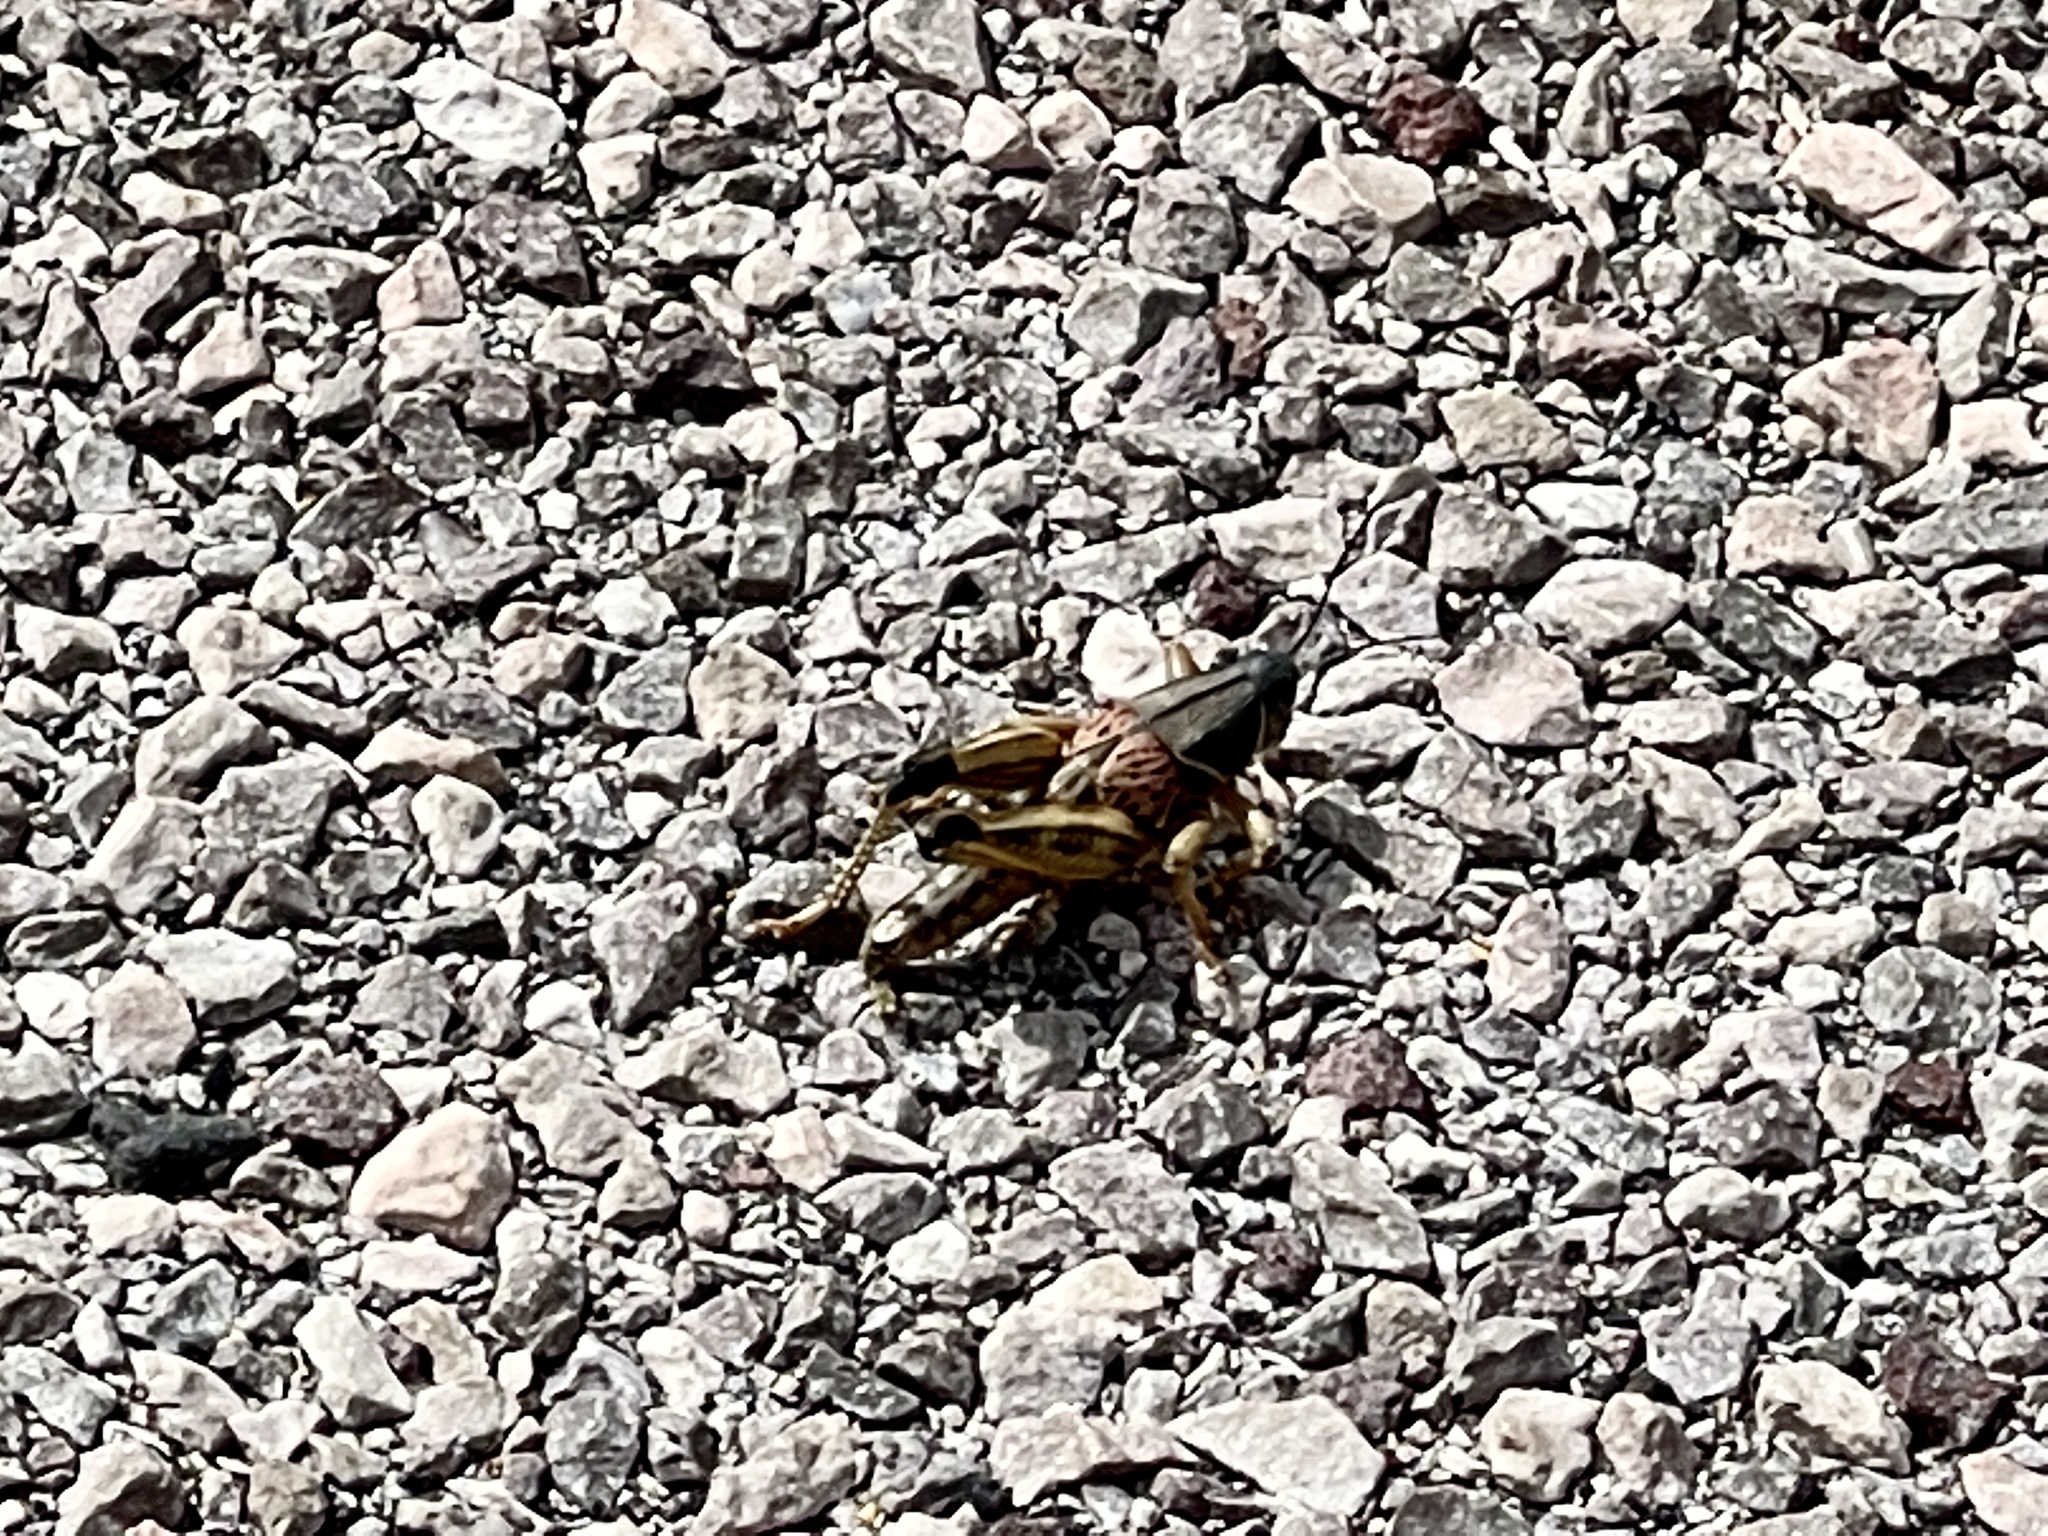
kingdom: Animalia
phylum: Arthropoda
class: Insecta
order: Orthoptera
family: Romaleidae
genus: Brachystola
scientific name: Brachystola magna
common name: Plains lubber grasshopper
